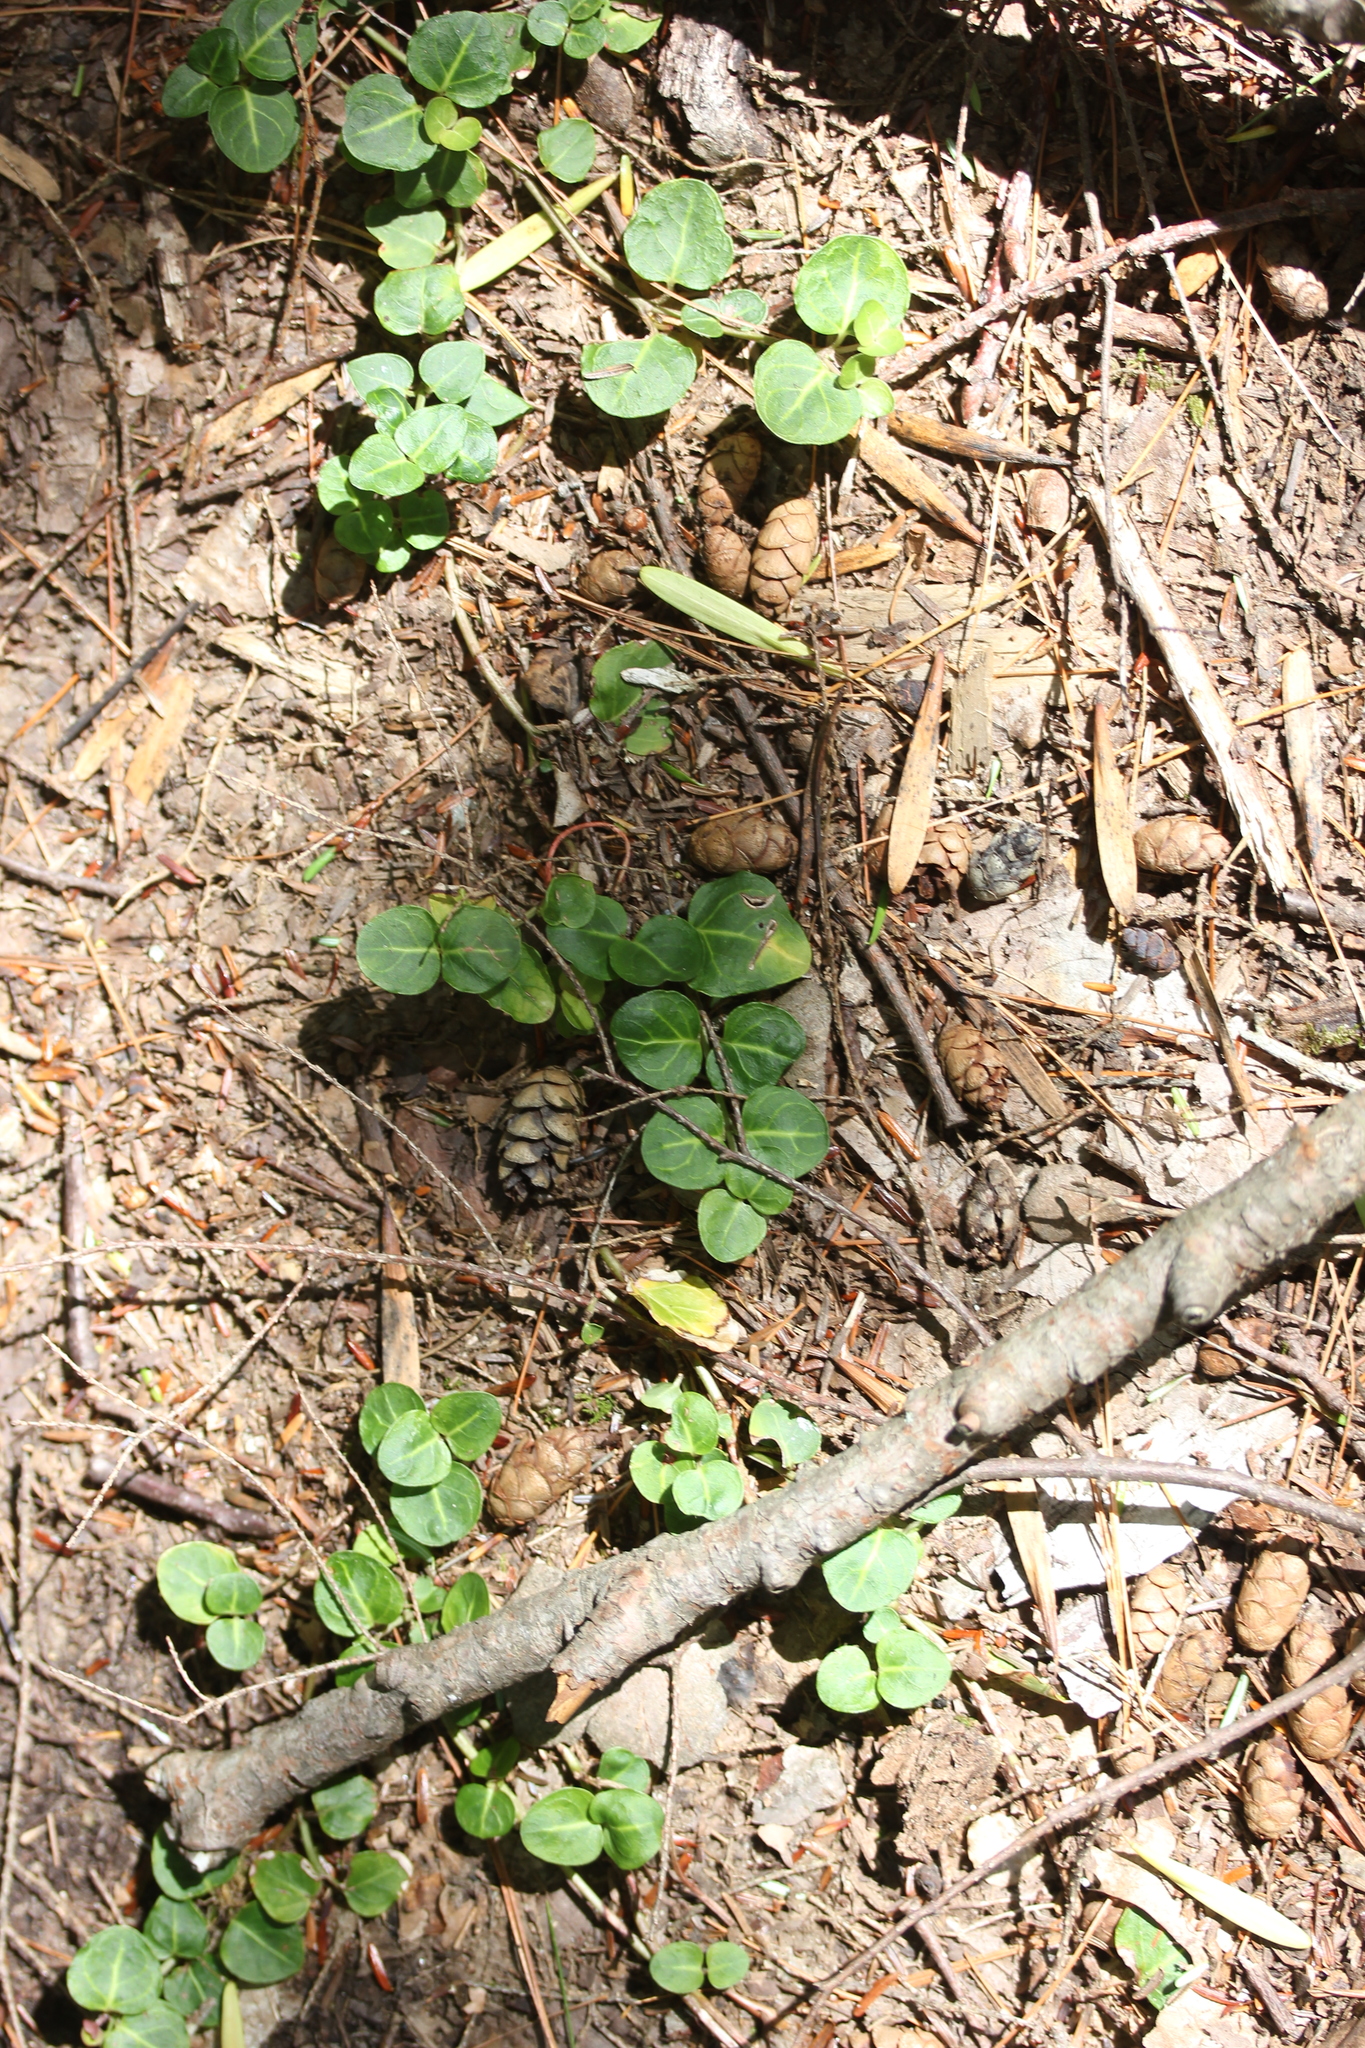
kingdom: Plantae
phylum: Tracheophyta
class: Magnoliopsida
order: Gentianales
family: Rubiaceae
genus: Mitchella
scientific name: Mitchella repens
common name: Partridge-berry
